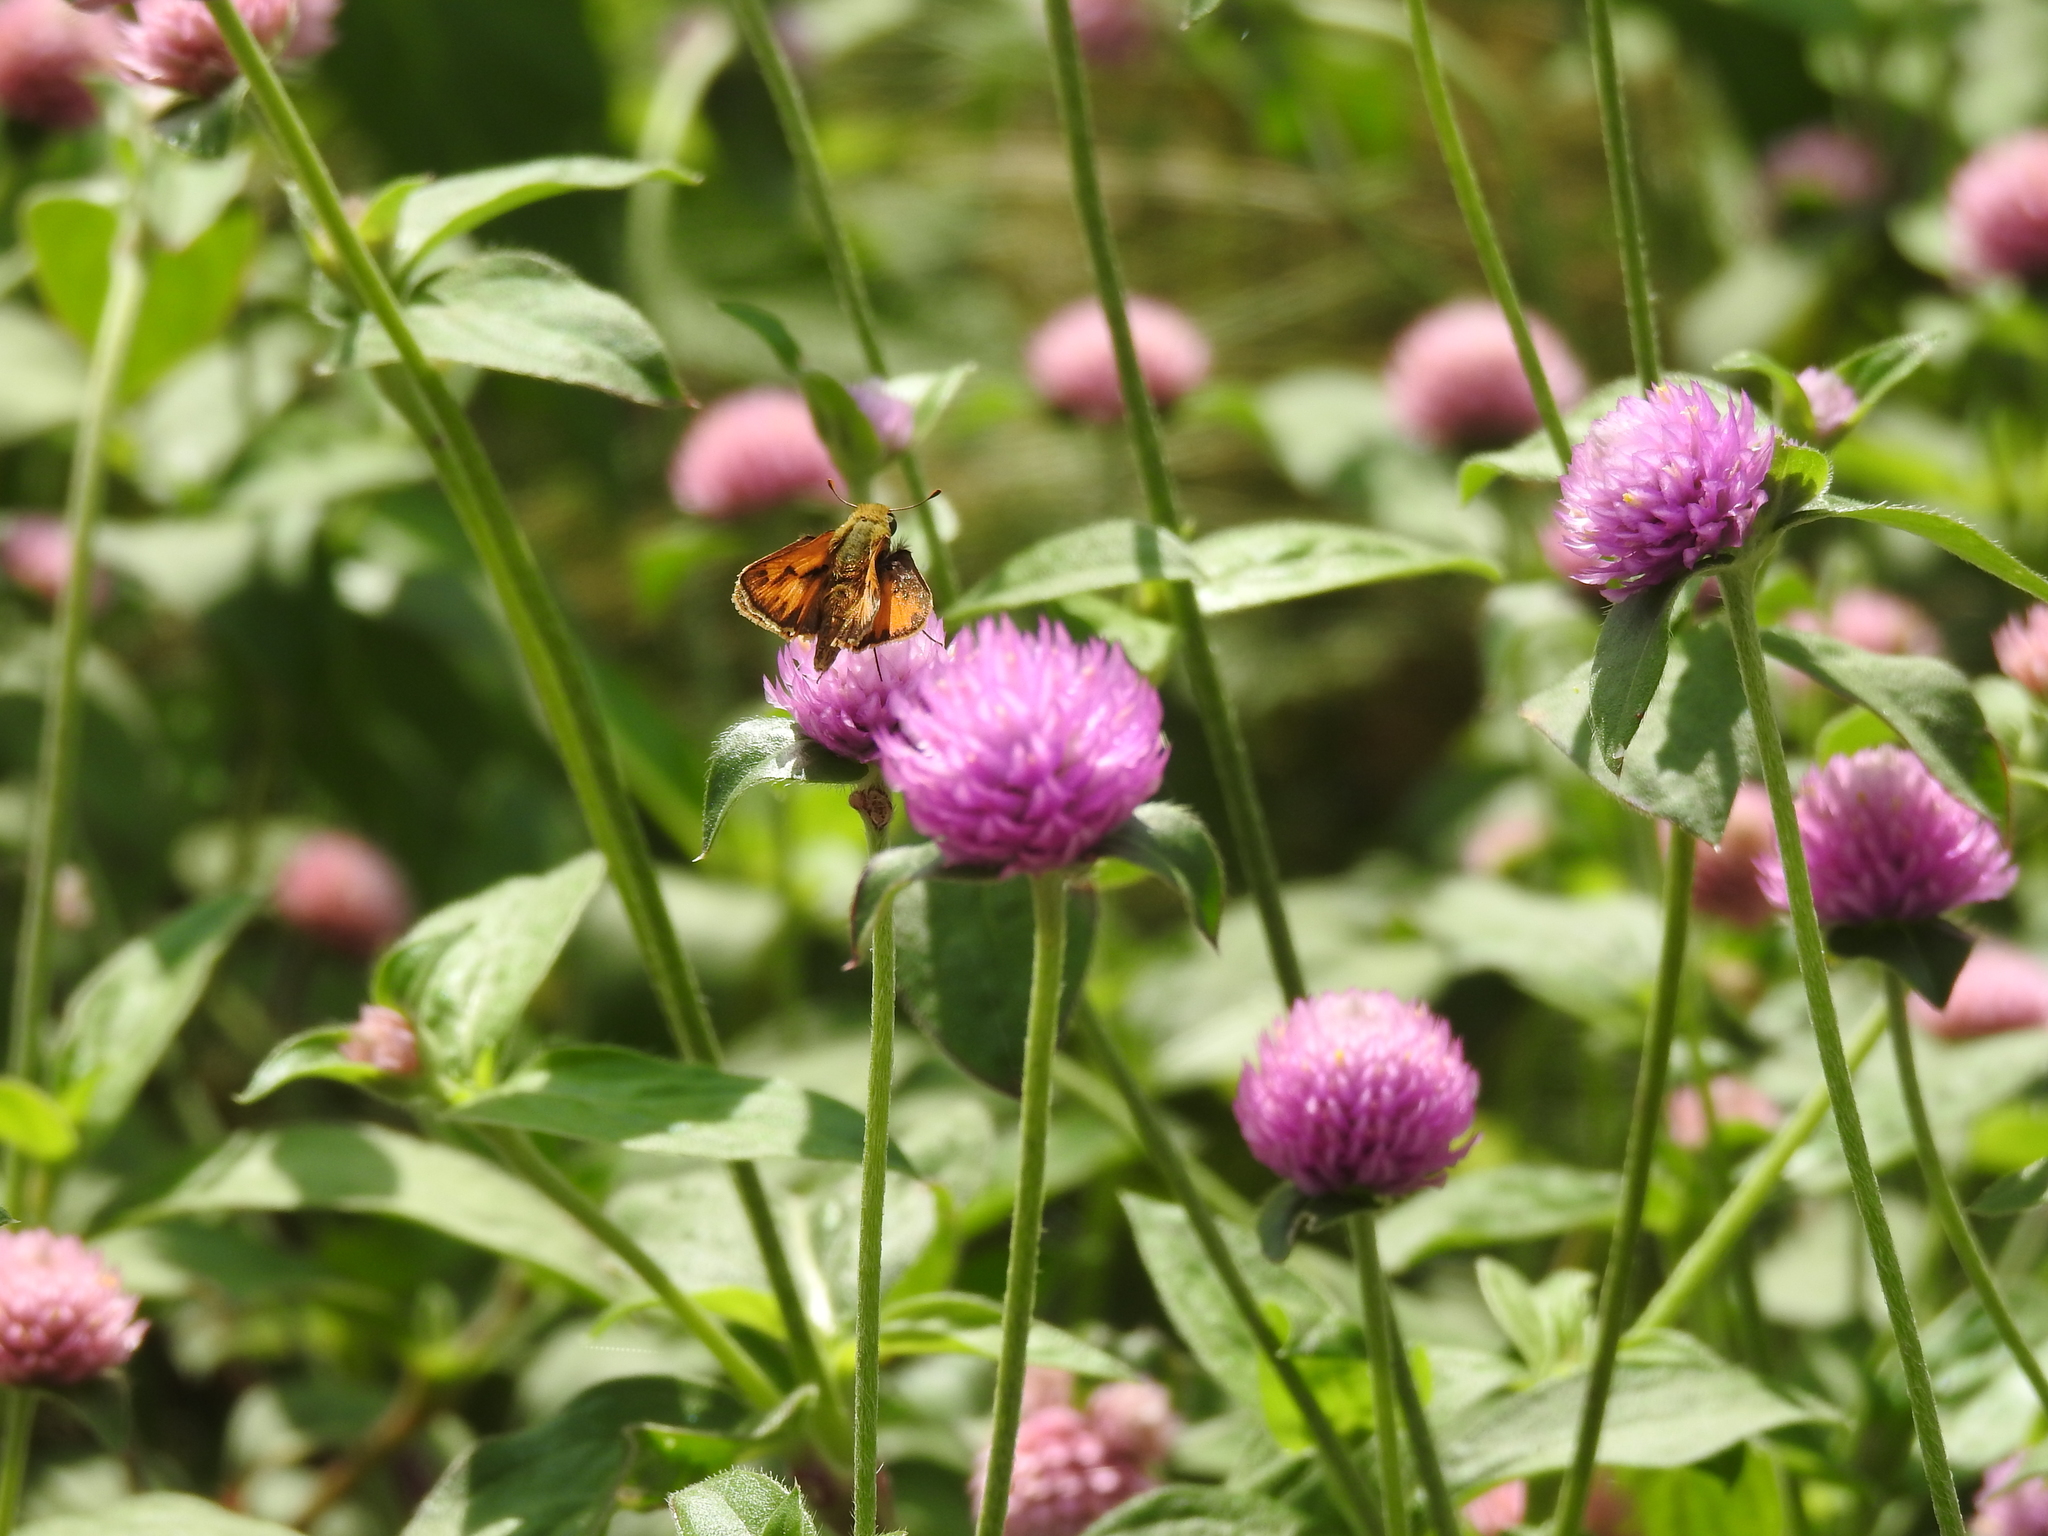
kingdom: Animalia
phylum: Arthropoda
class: Insecta
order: Lepidoptera
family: Hesperiidae
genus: Hylephila
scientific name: Hylephila phyleus
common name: Fiery skipper
